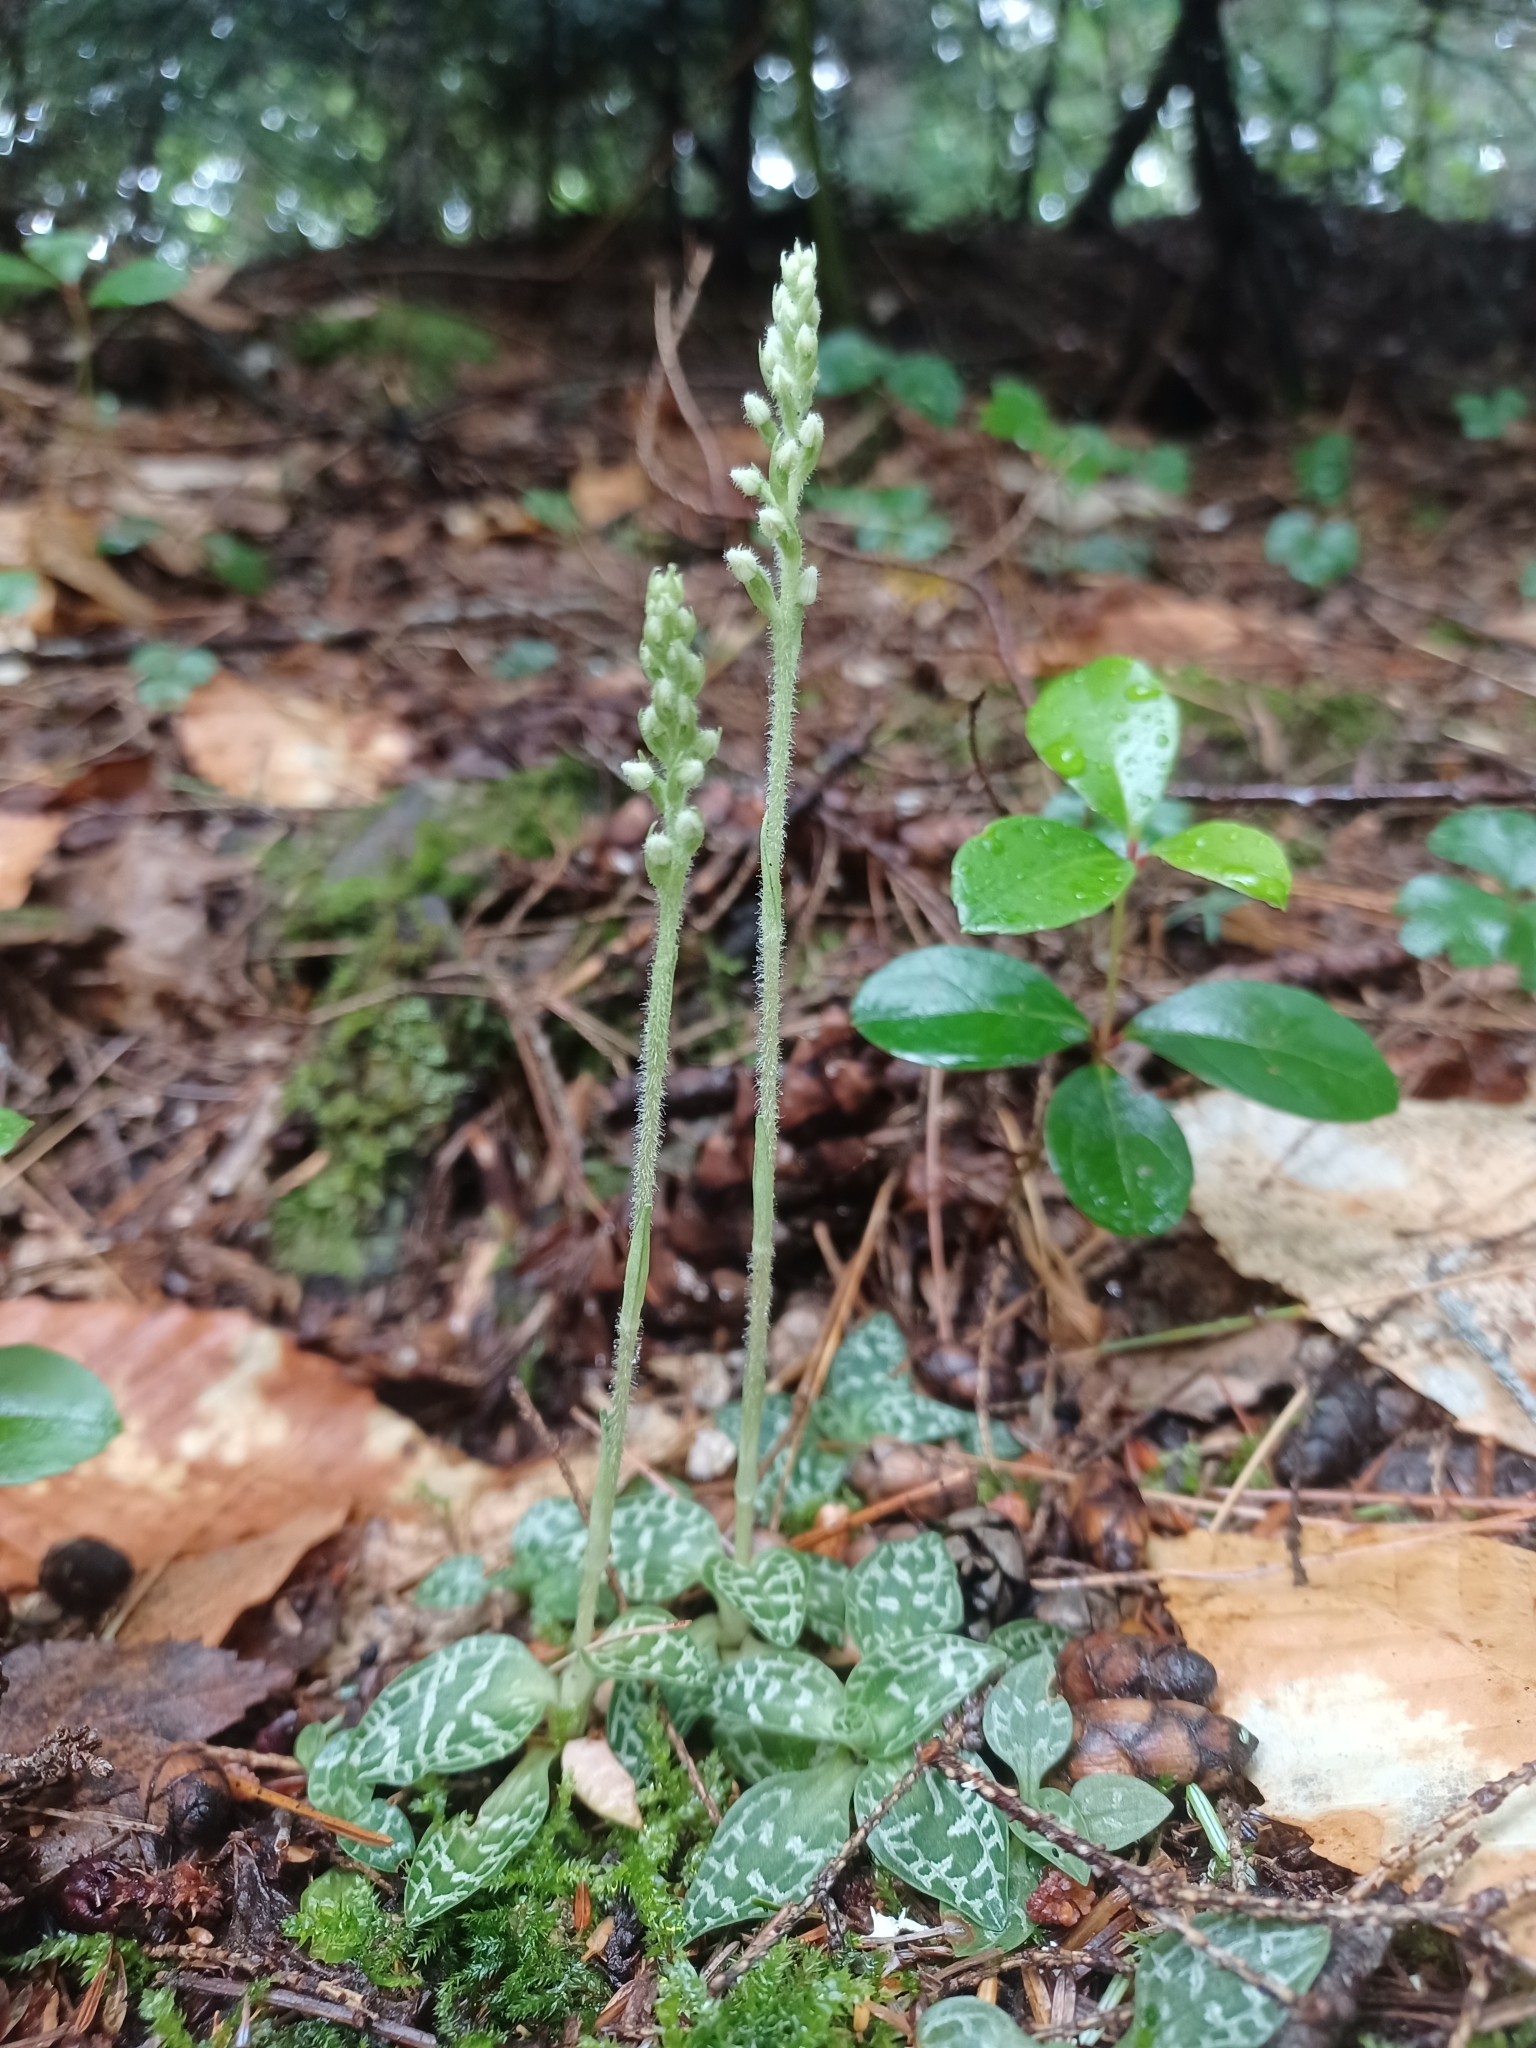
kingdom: Plantae
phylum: Tracheophyta
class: Liliopsida
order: Asparagales
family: Orchidaceae
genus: Goodyera
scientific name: Goodyera repens
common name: Creeping lady's-tresses
